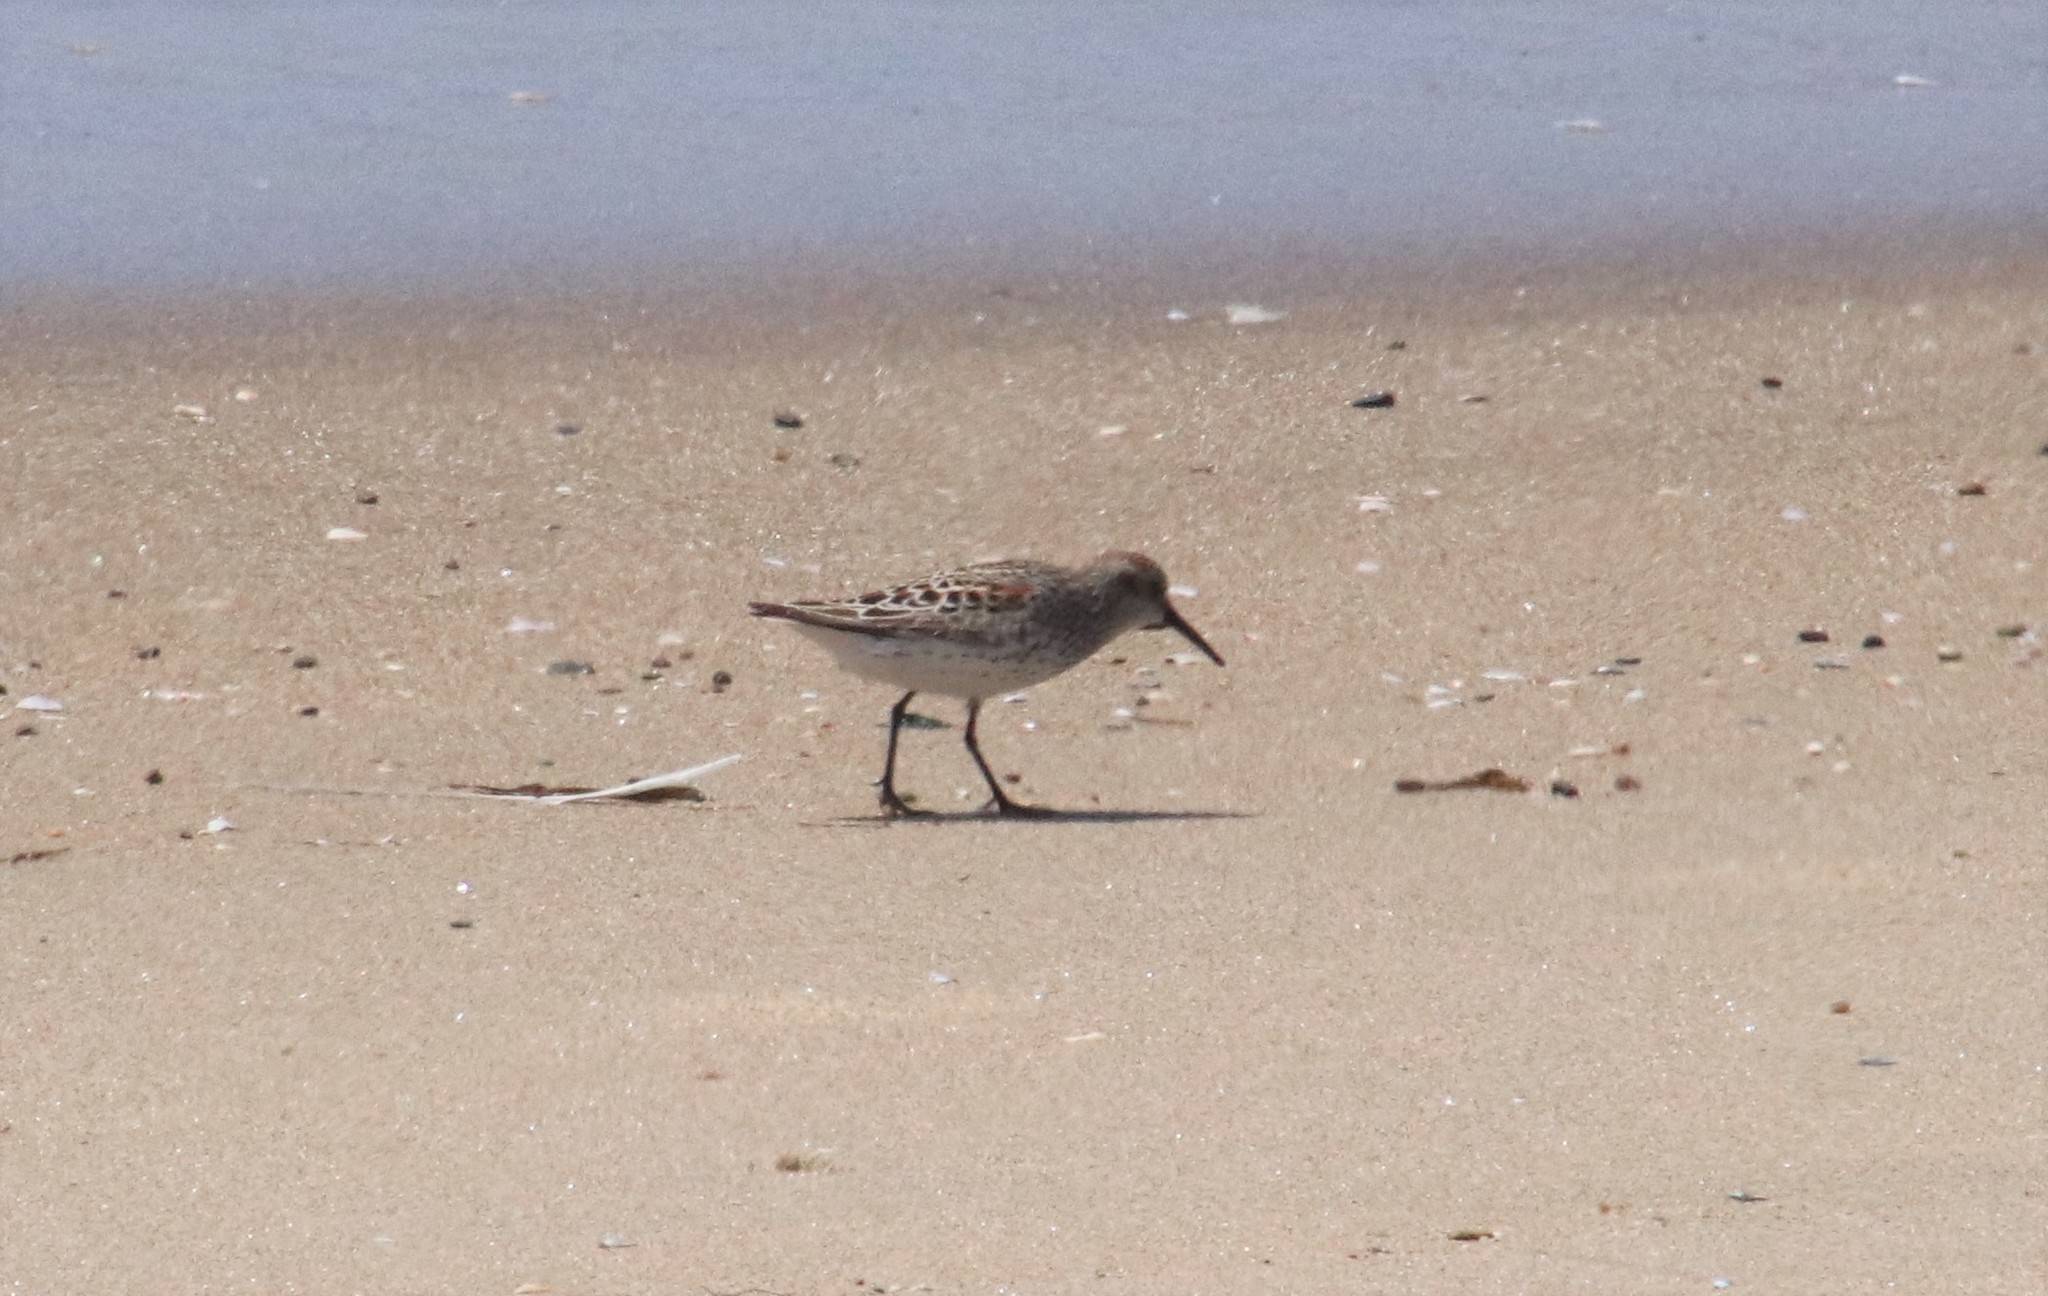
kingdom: Animalia
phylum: Chordata
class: Aves
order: Charadriiformes
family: Scolopacidae
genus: Calidris
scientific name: Calidris mauri
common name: Western sandpiper
